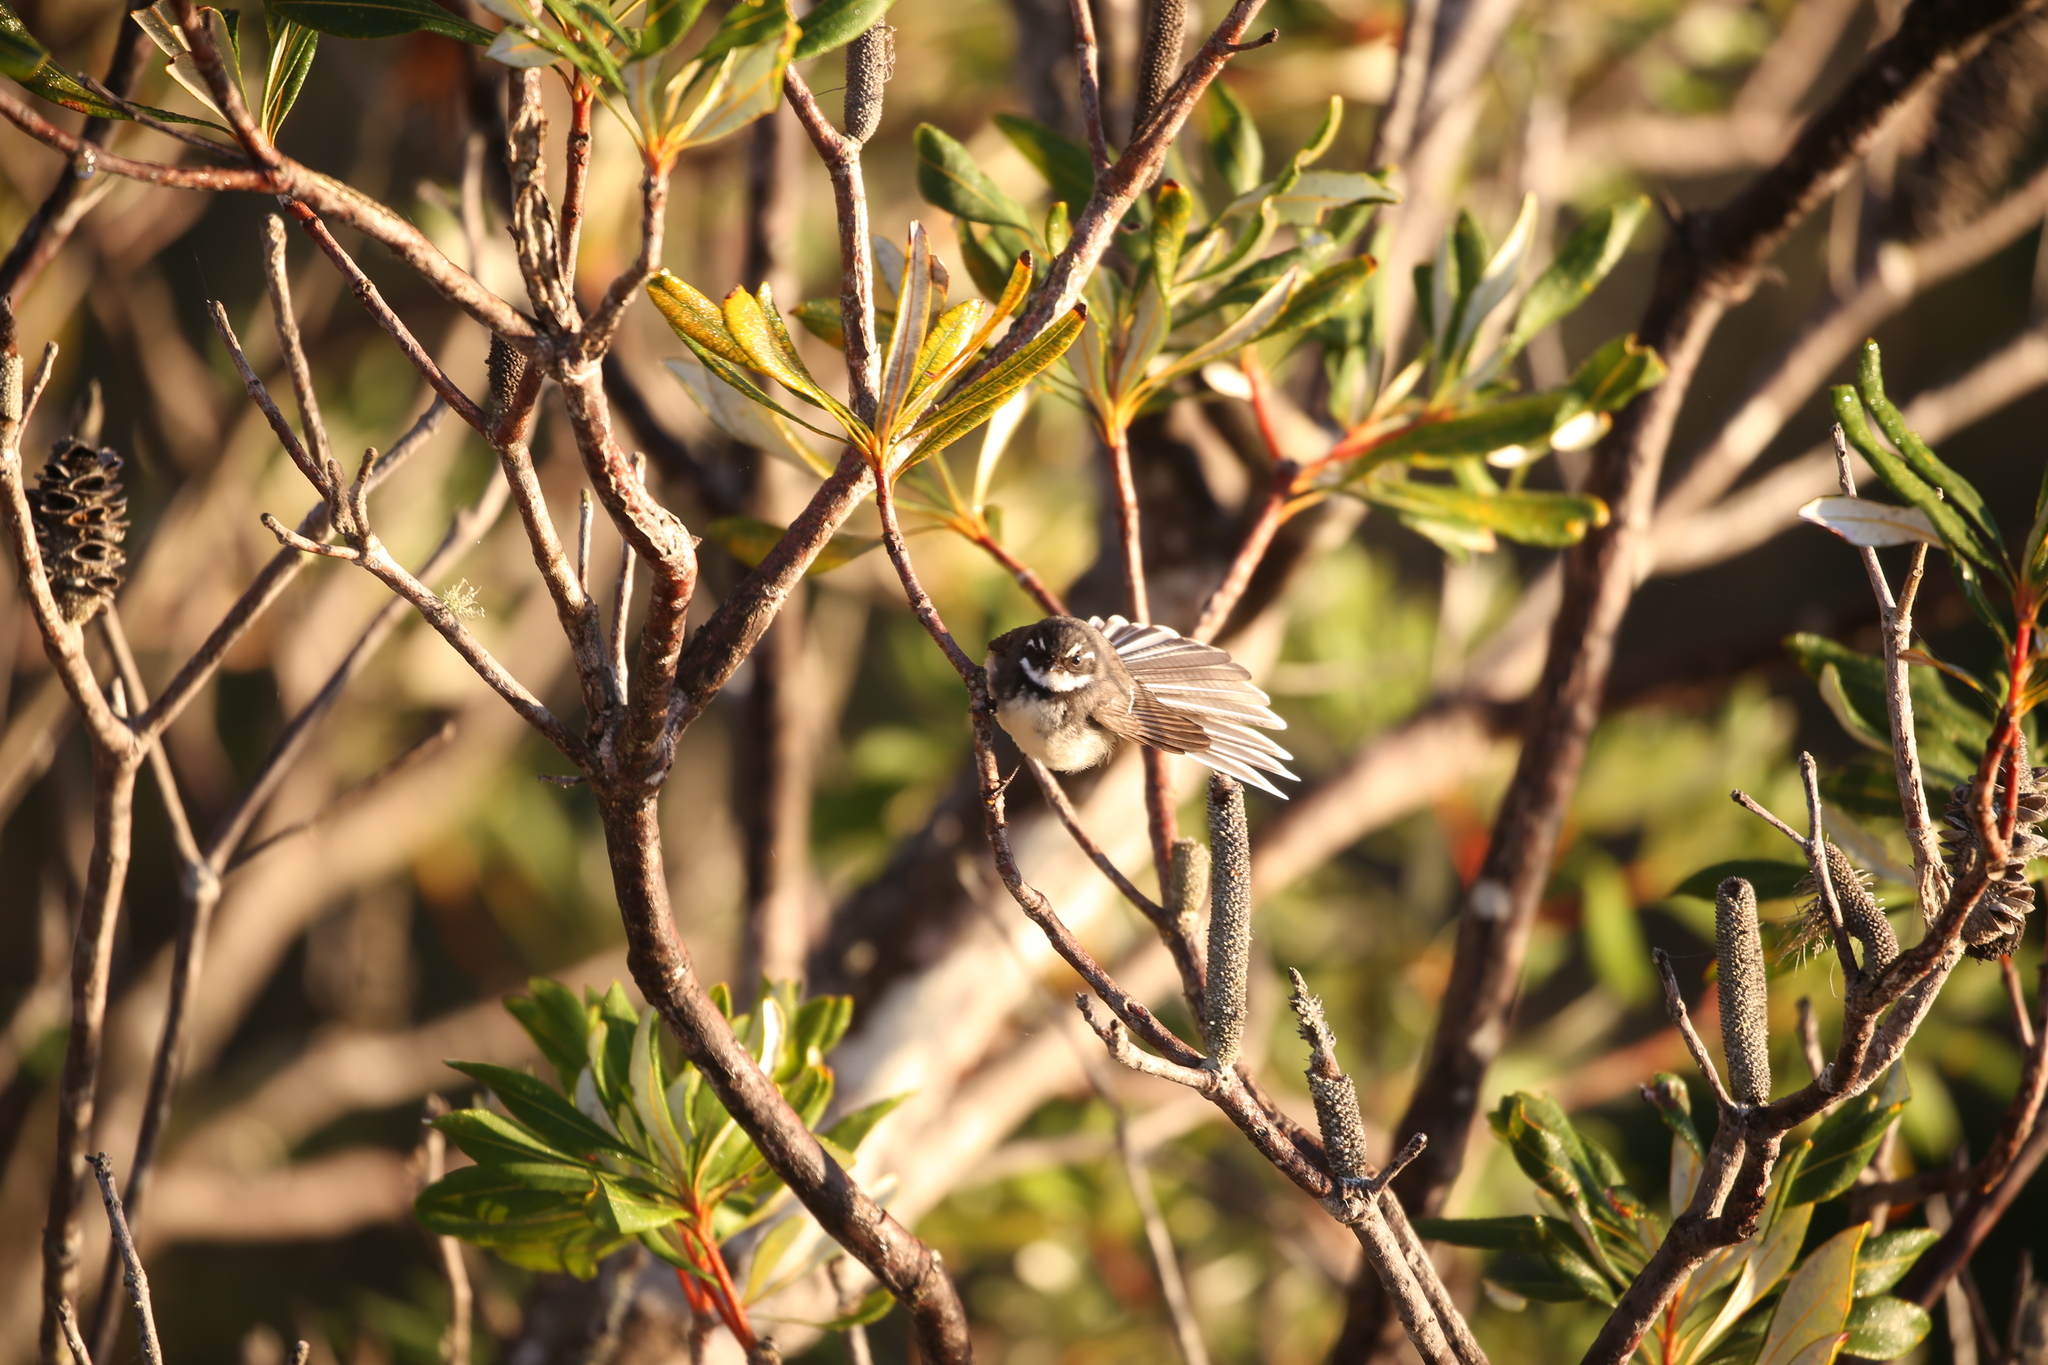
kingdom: Animalia
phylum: Chordata
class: Aves
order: Passeriformes
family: Rhipiduridae
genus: Rhipidura
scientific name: Rhipidura albiscapa
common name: Grey fantail
